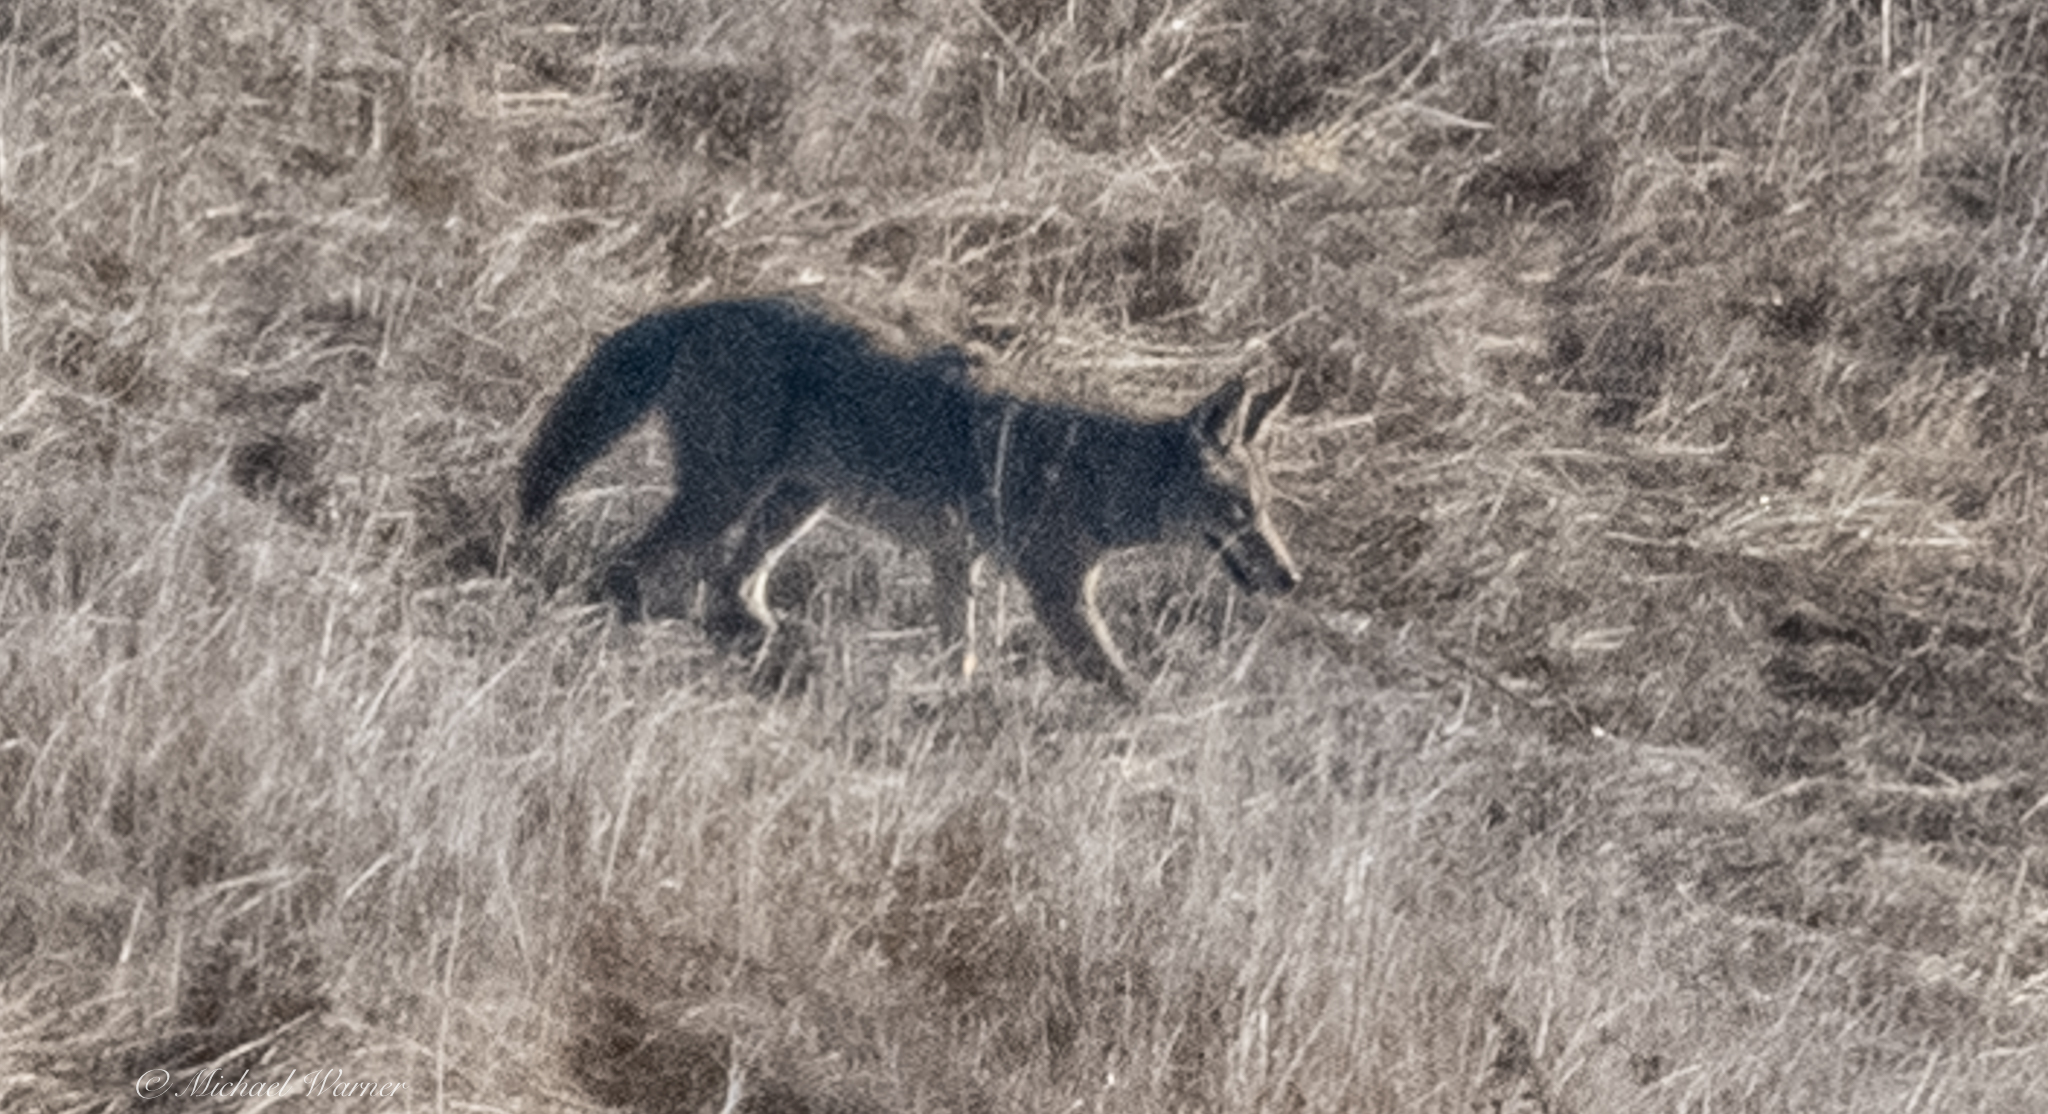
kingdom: Animalia
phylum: Chordata
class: Mammalia
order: Carnivora
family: Canidae
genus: Canis
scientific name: Canis latrans
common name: Coyote
